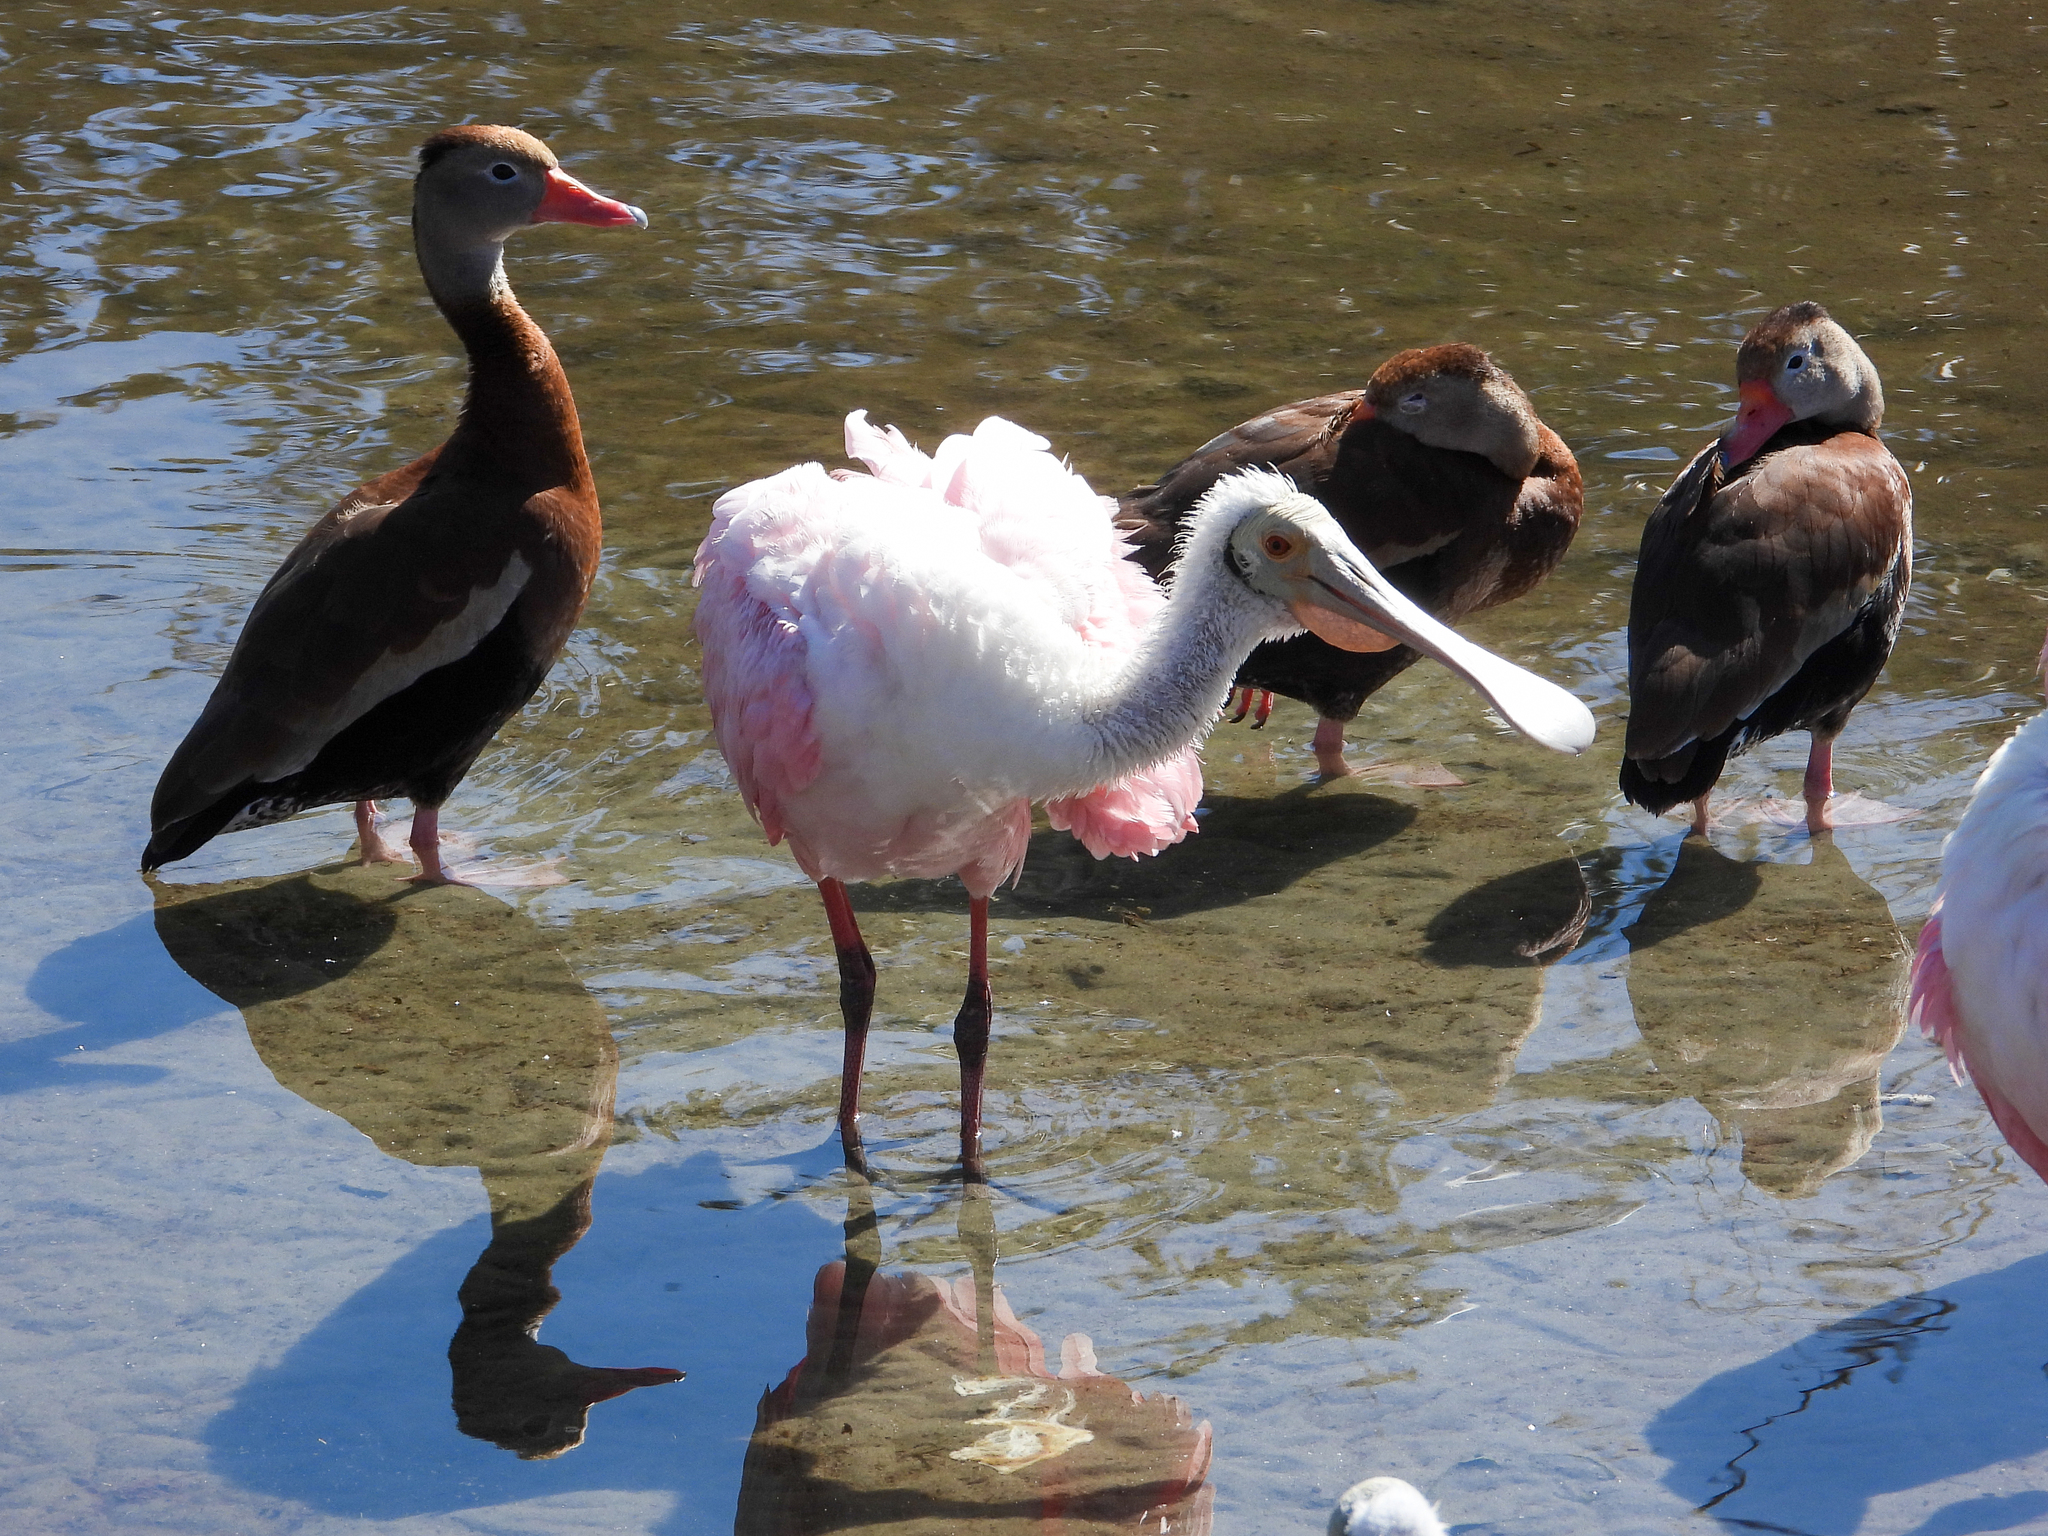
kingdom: Animalia
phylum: Chordata
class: Aves
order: Pelecaniformes
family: Threskiornithidae
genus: Platalea
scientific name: Platalea ajaja
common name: Roseate spoonbill
